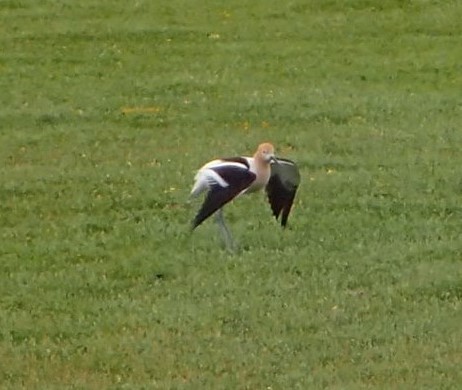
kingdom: Animalia
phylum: Chordata
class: Aves
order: Charadriiformes
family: Recurvirostridae
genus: Recurvirostra
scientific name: Recurvirostra americana
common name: American avocet
